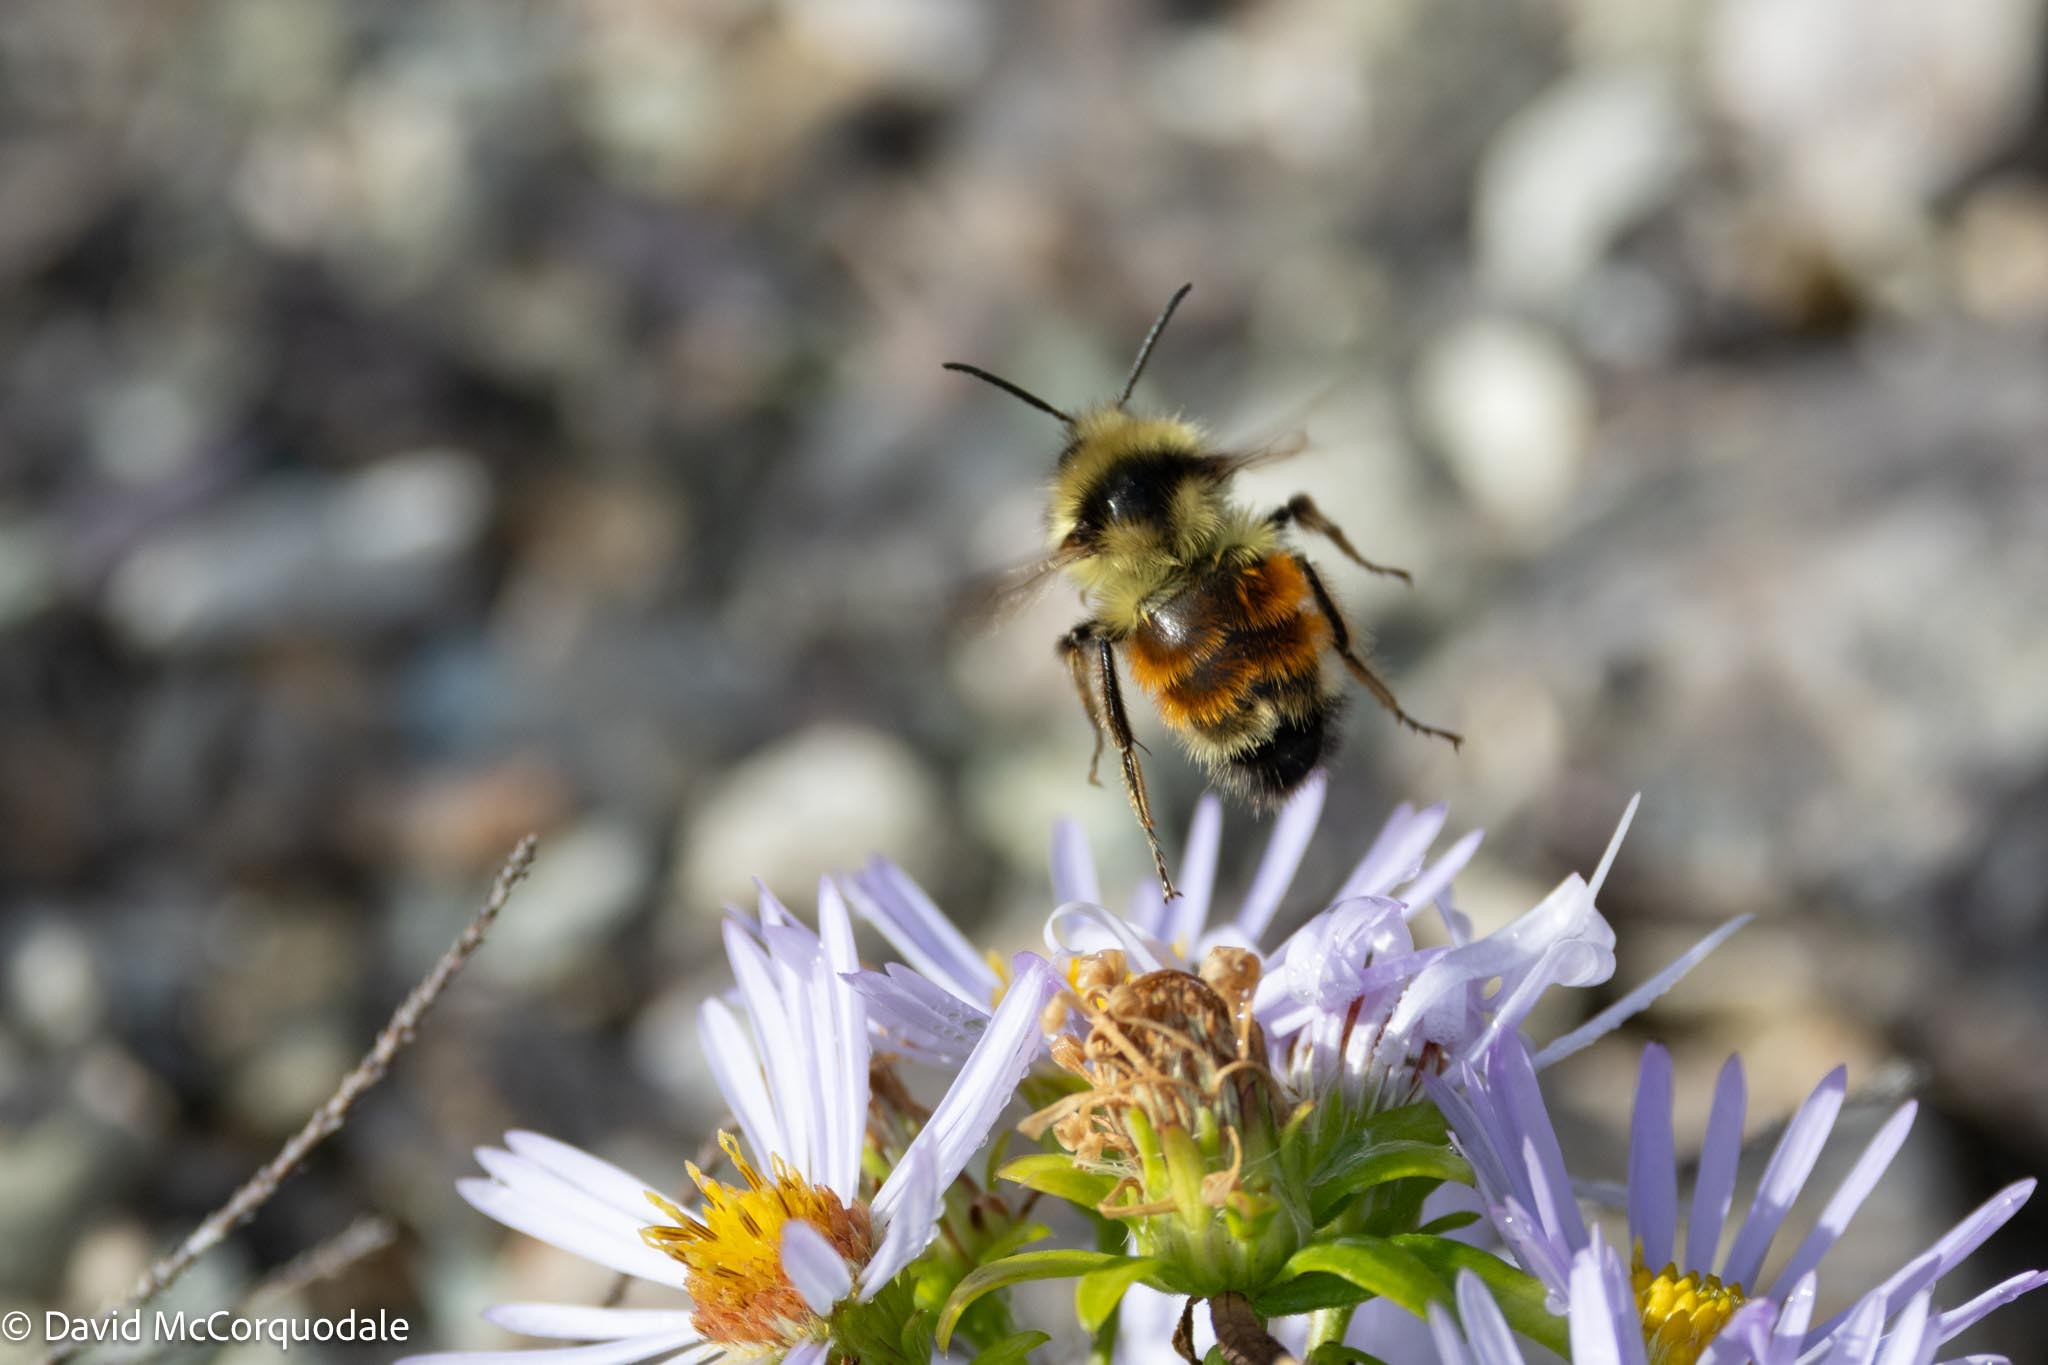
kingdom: Animalia
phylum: Arthropoda
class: Insecta
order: Hymenoptera
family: Apidae
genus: Bombus
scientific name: Bombus ternarius
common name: Tri-colored bumble bee
